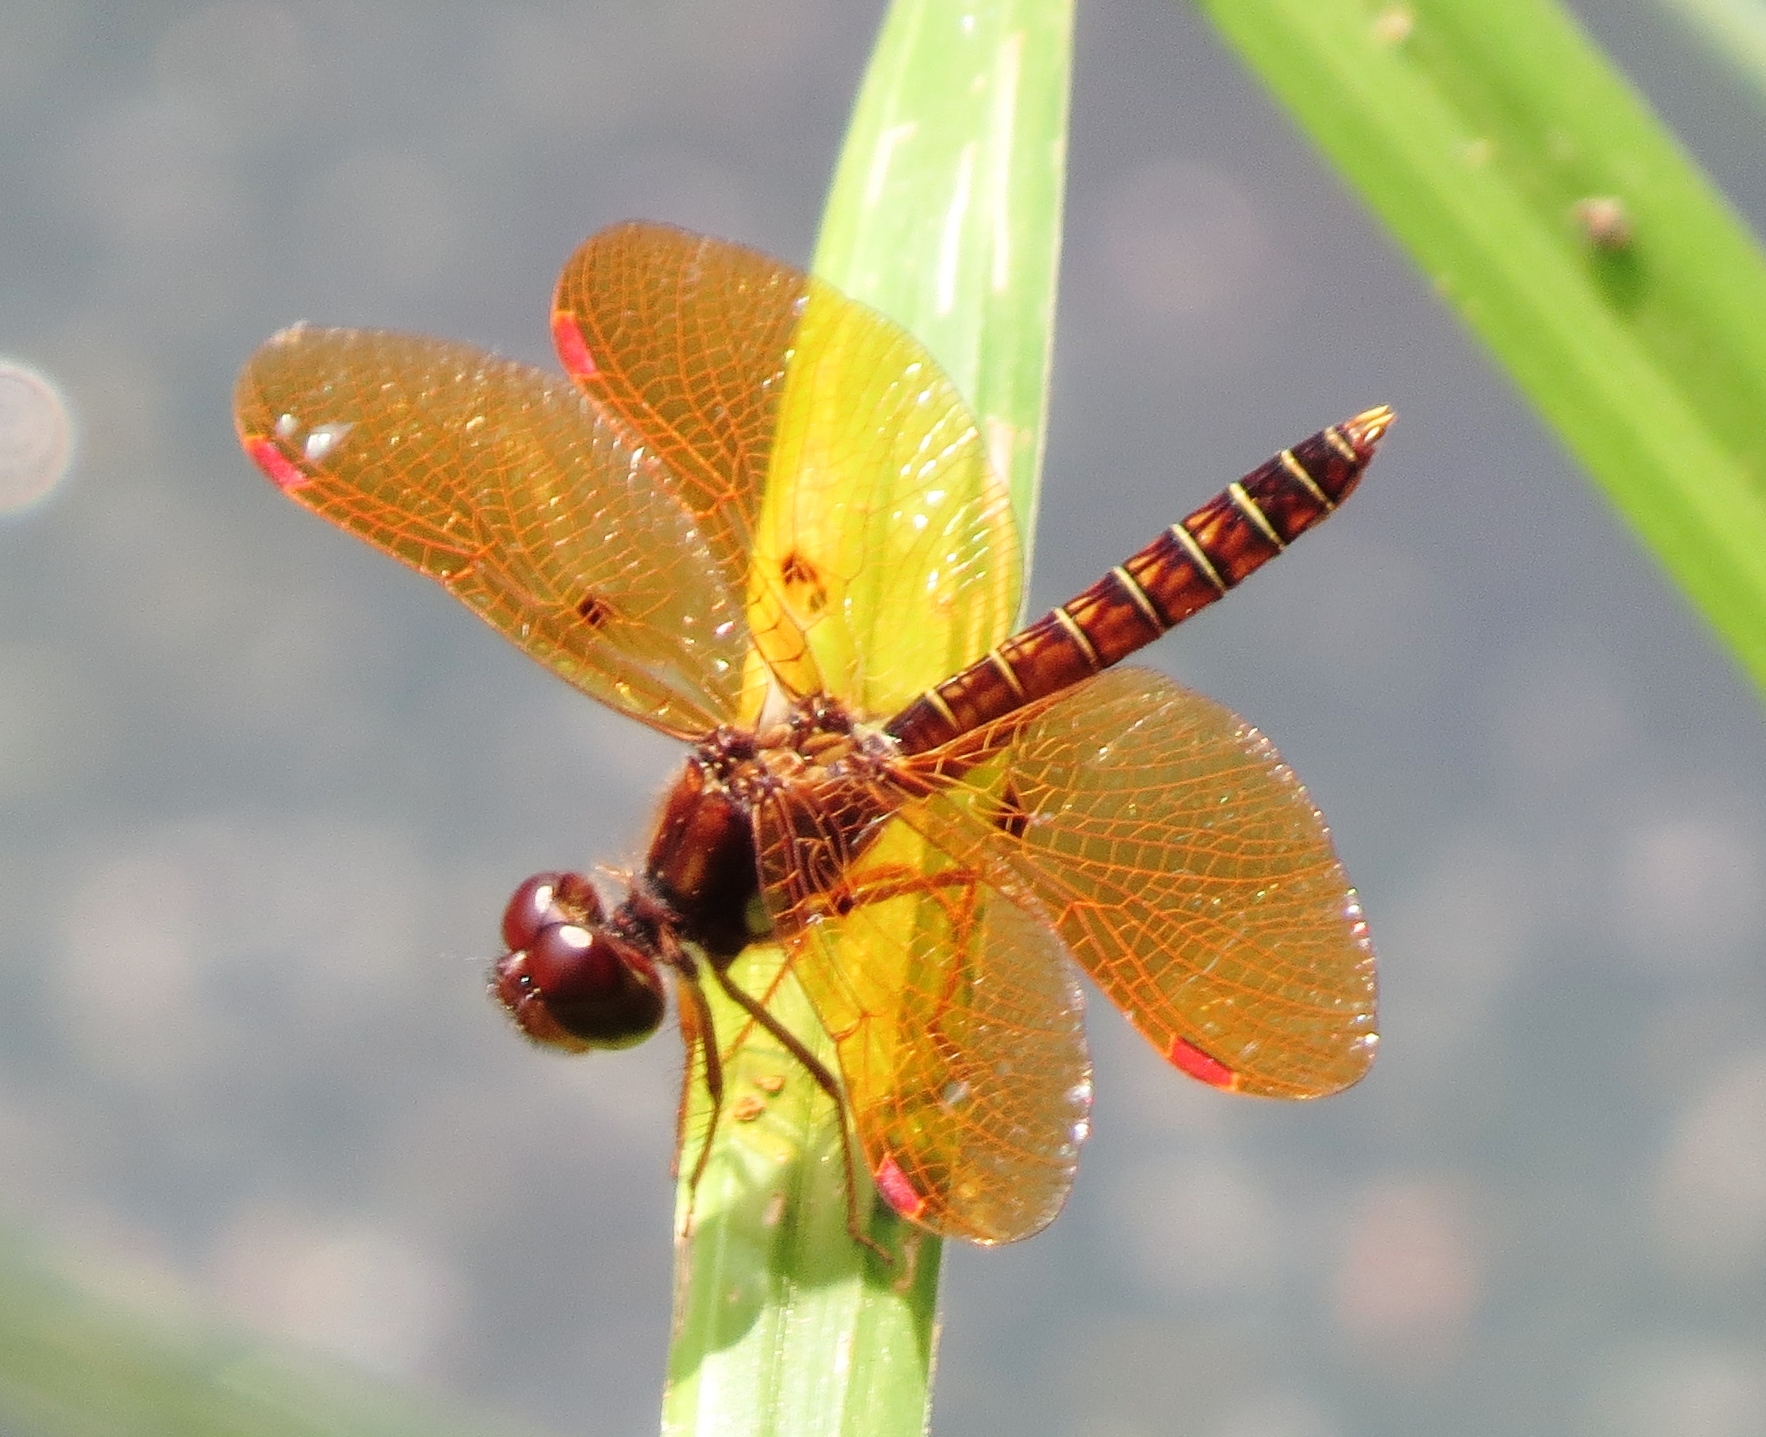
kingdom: Animalia
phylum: Arthropoda
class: Insecta
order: Odonata
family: Libellulidae
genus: Perithemis
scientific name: Perithemis tenera
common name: Eastern amberwing
